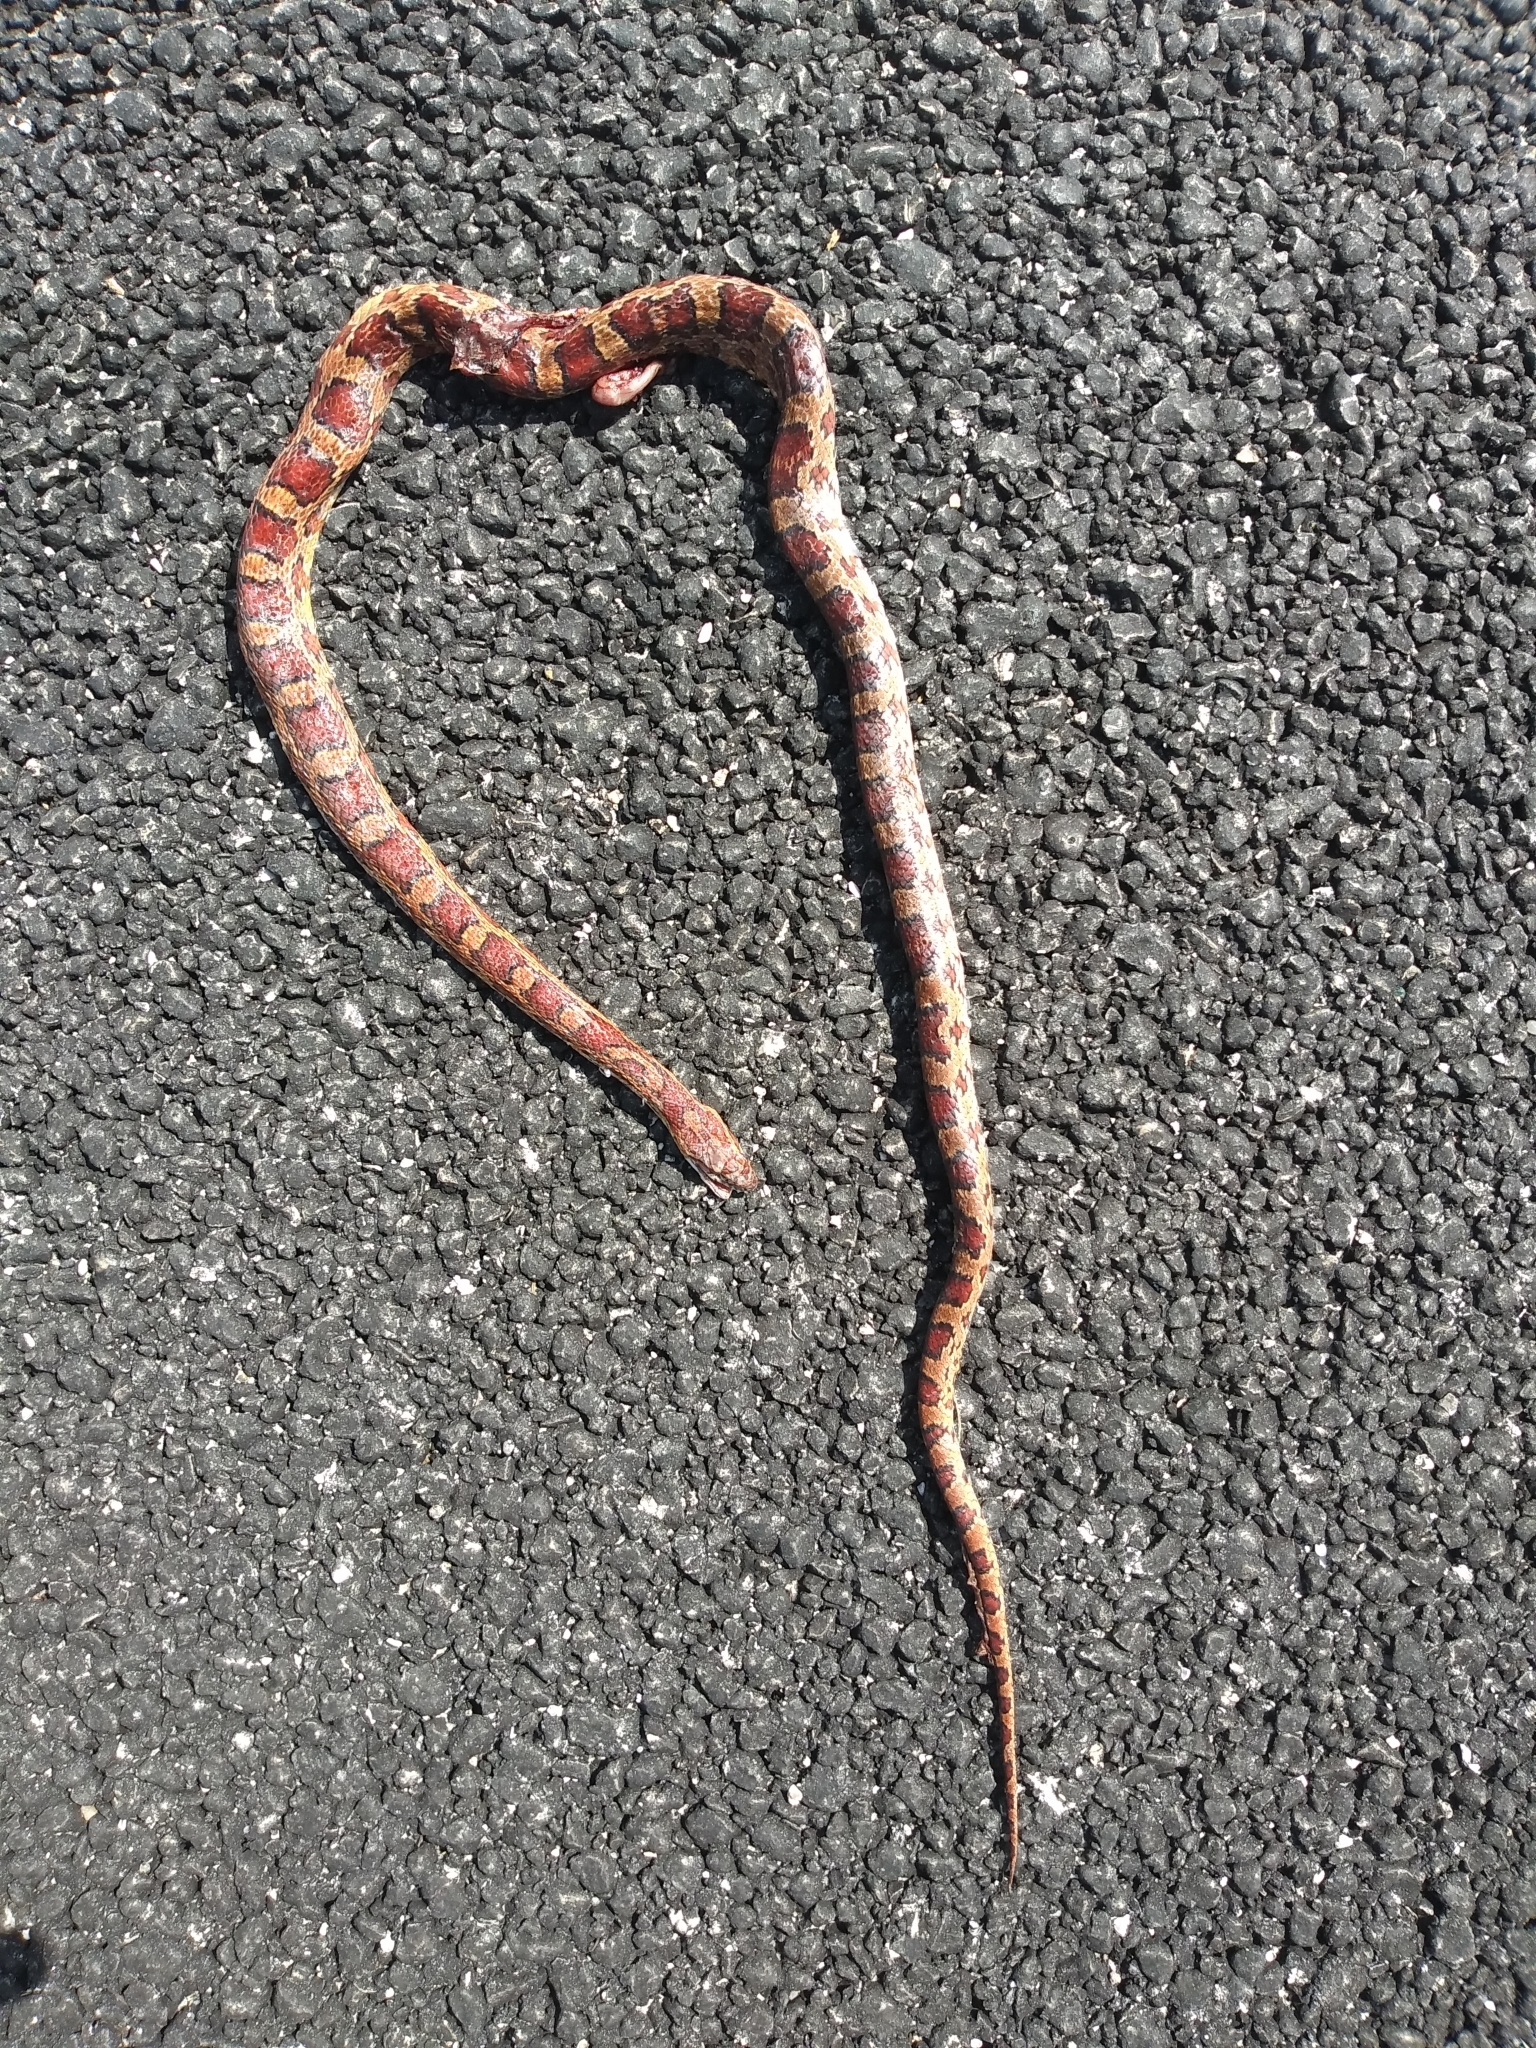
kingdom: Animalia
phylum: Chordata
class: Squamata
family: Colubridae
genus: Pantherophis
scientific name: Pantherophis guttatus
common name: Red cornsnake
